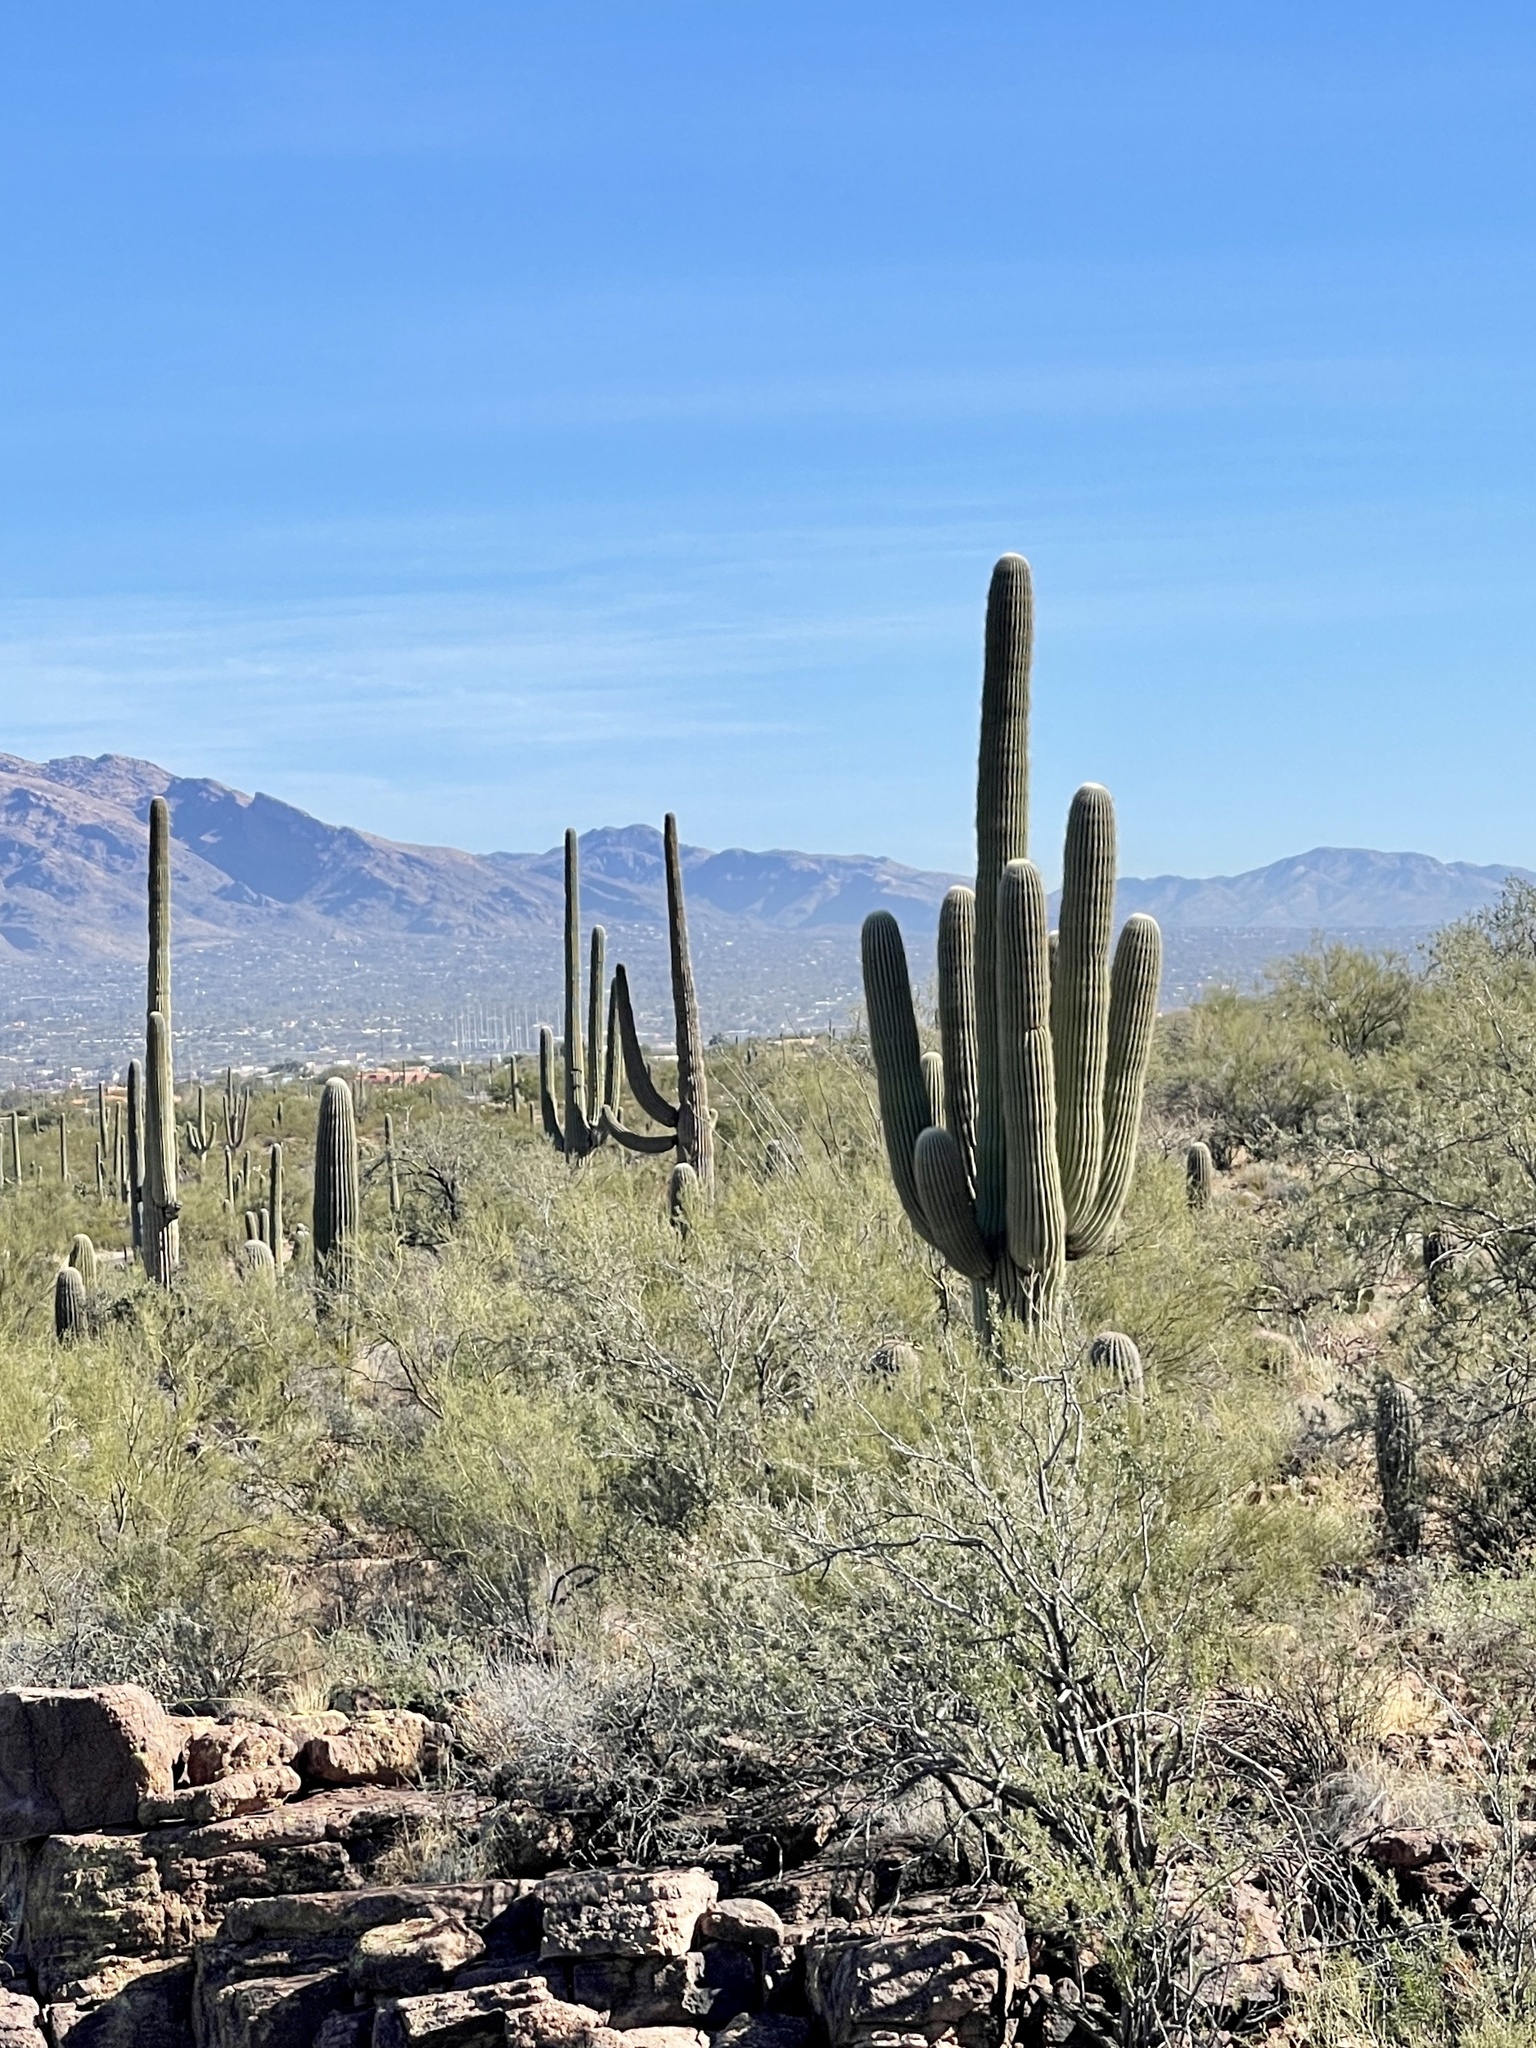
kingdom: Plantae
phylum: Tracheophyta
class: Magnoliopsida
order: Caryophyllales
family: Cactaceae
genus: Carnegiea
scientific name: Carnegiea gigantea
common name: Saguaro
